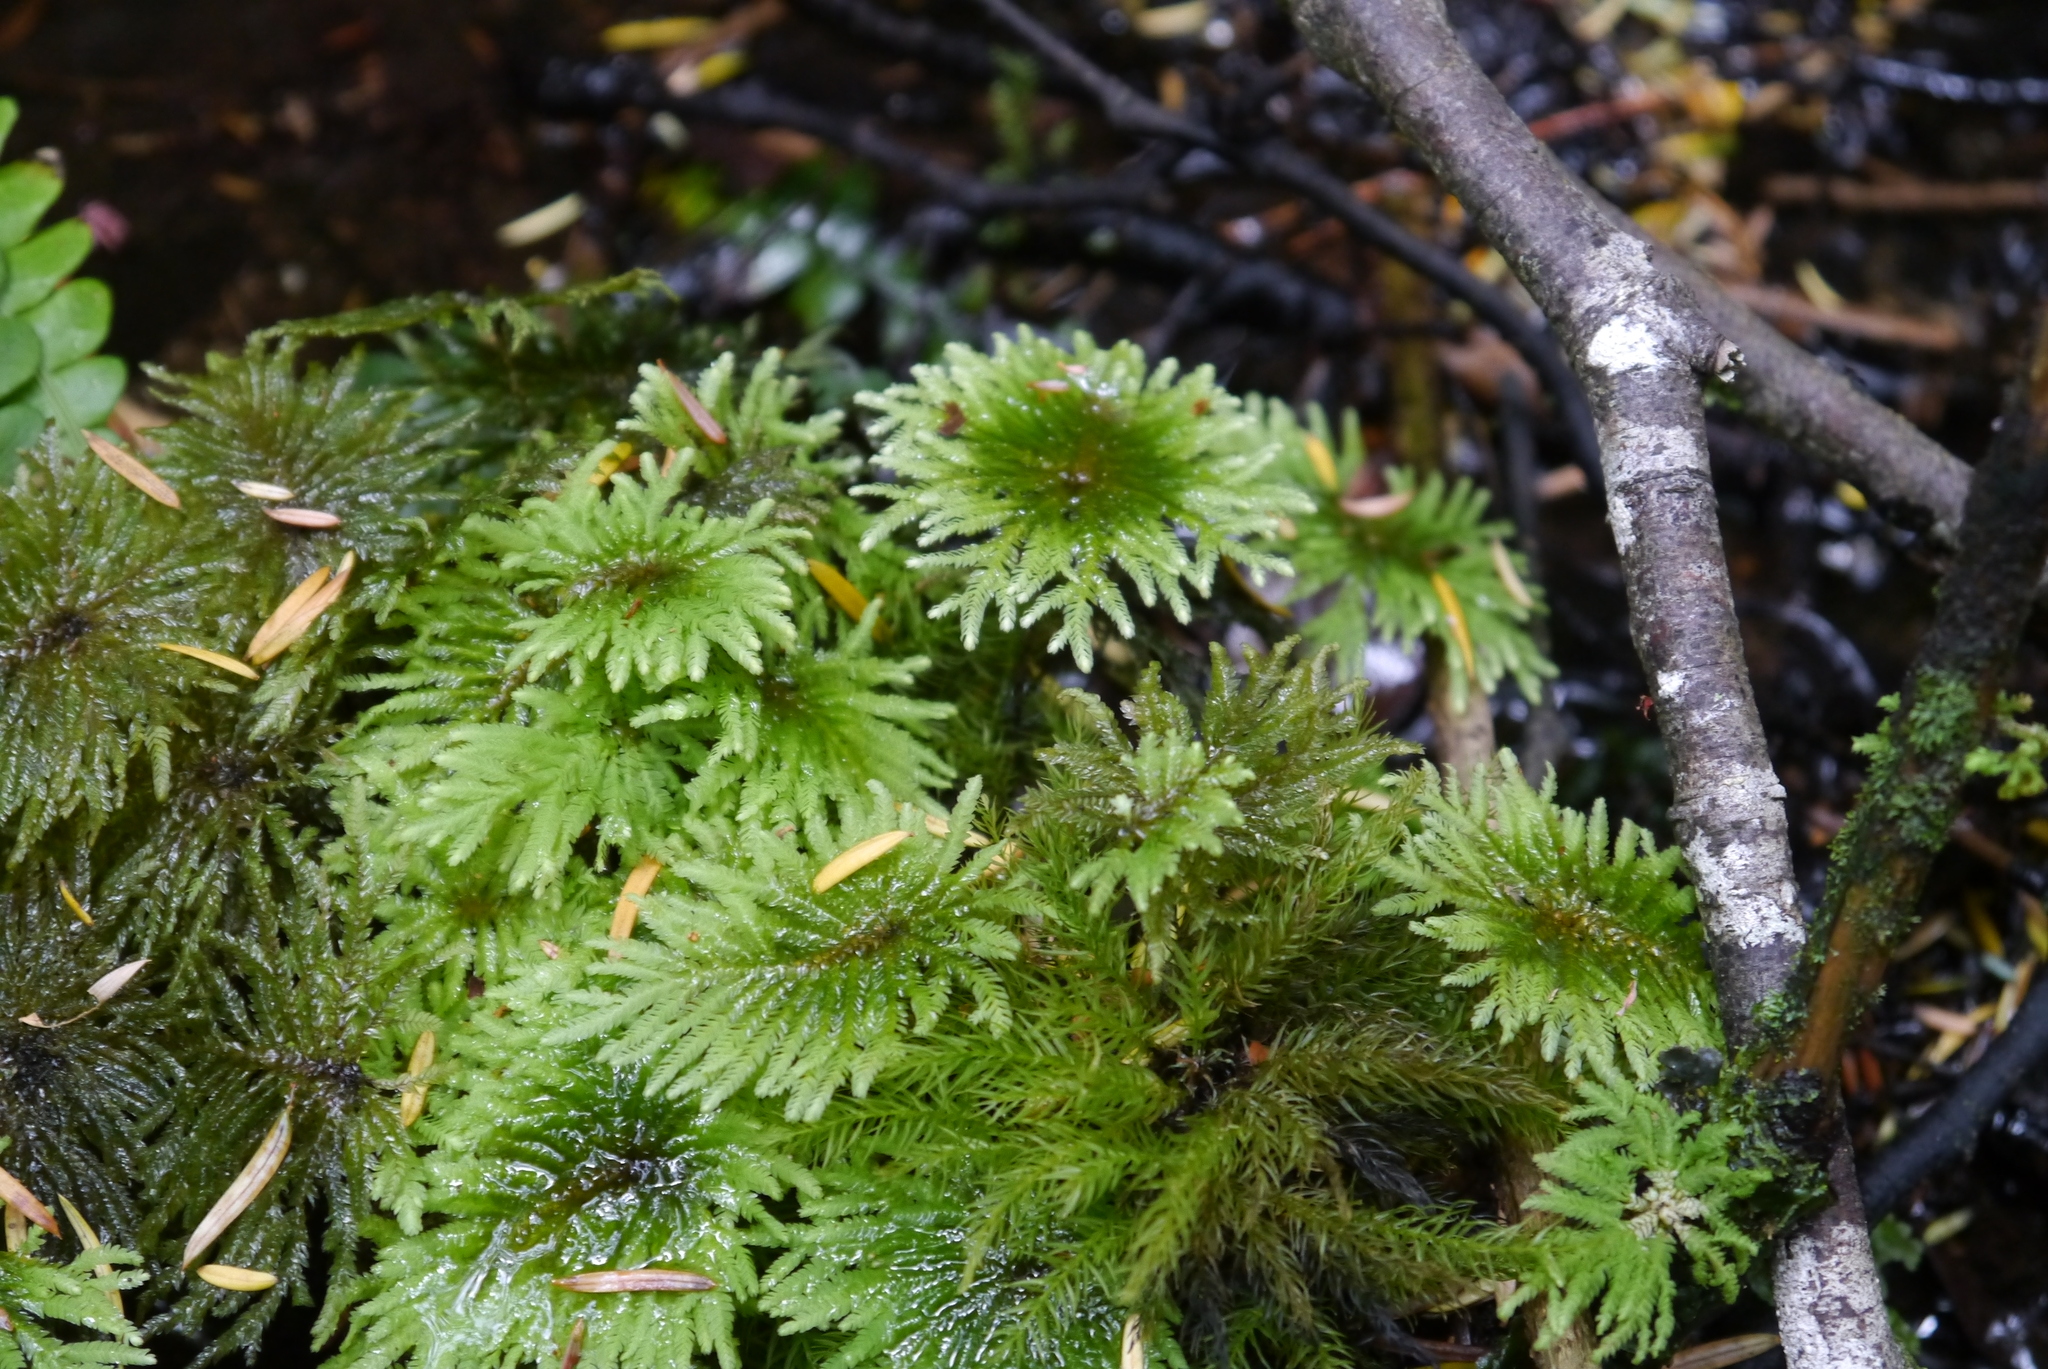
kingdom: Plantae
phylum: Bryophyta
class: Bryopsida
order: Hypopterygiales
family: Hypopterygiaceae
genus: Arbusculohypopterygium
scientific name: Arbusculohypopterygium arbuscula
